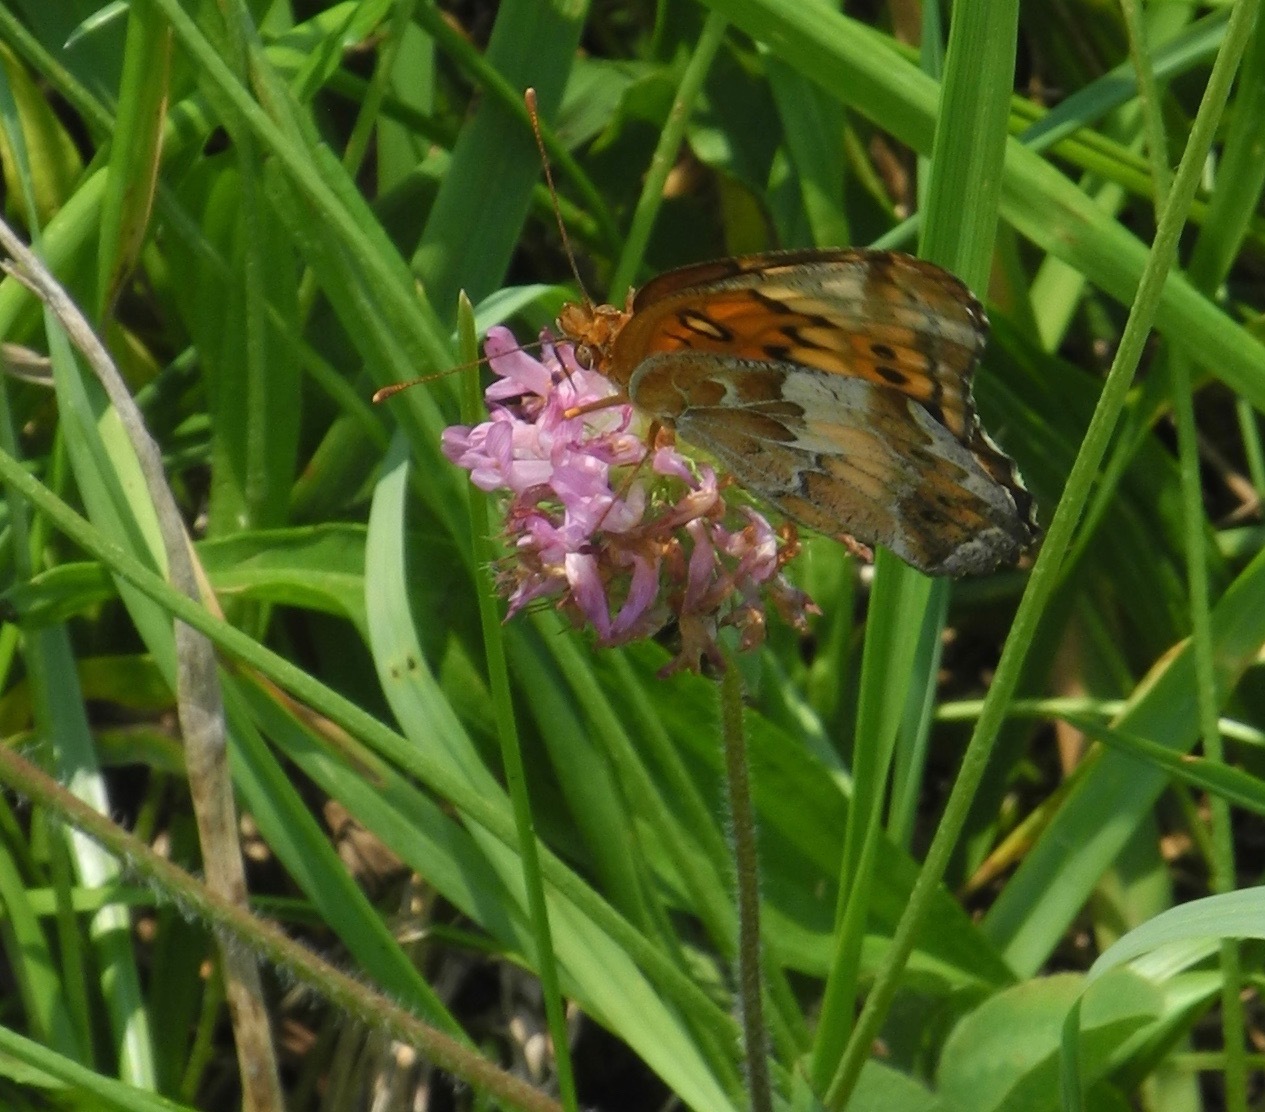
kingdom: Animalia
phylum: Arthropoda
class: Insecta
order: Lepidoptera
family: Nymphalidae
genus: Euptoieta
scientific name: Euptoieta claudia
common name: Variegated fritillary
